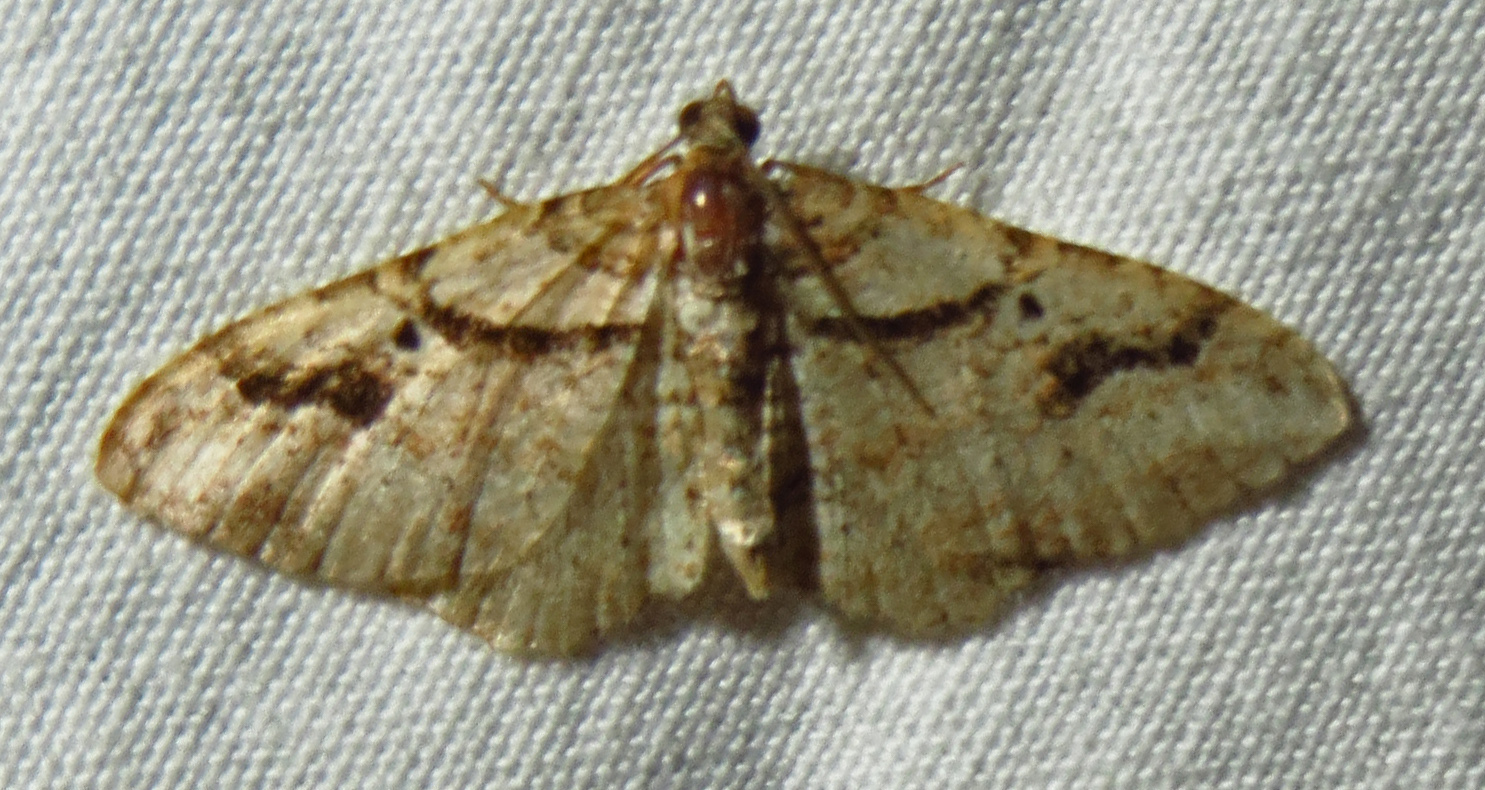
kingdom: Animalia
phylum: Arthropoda
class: Insecta
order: Lepidoptera
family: Geometridae
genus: Costaconvexa
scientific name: Costaconvexa centrostrigaria
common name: Bent-line carpet
